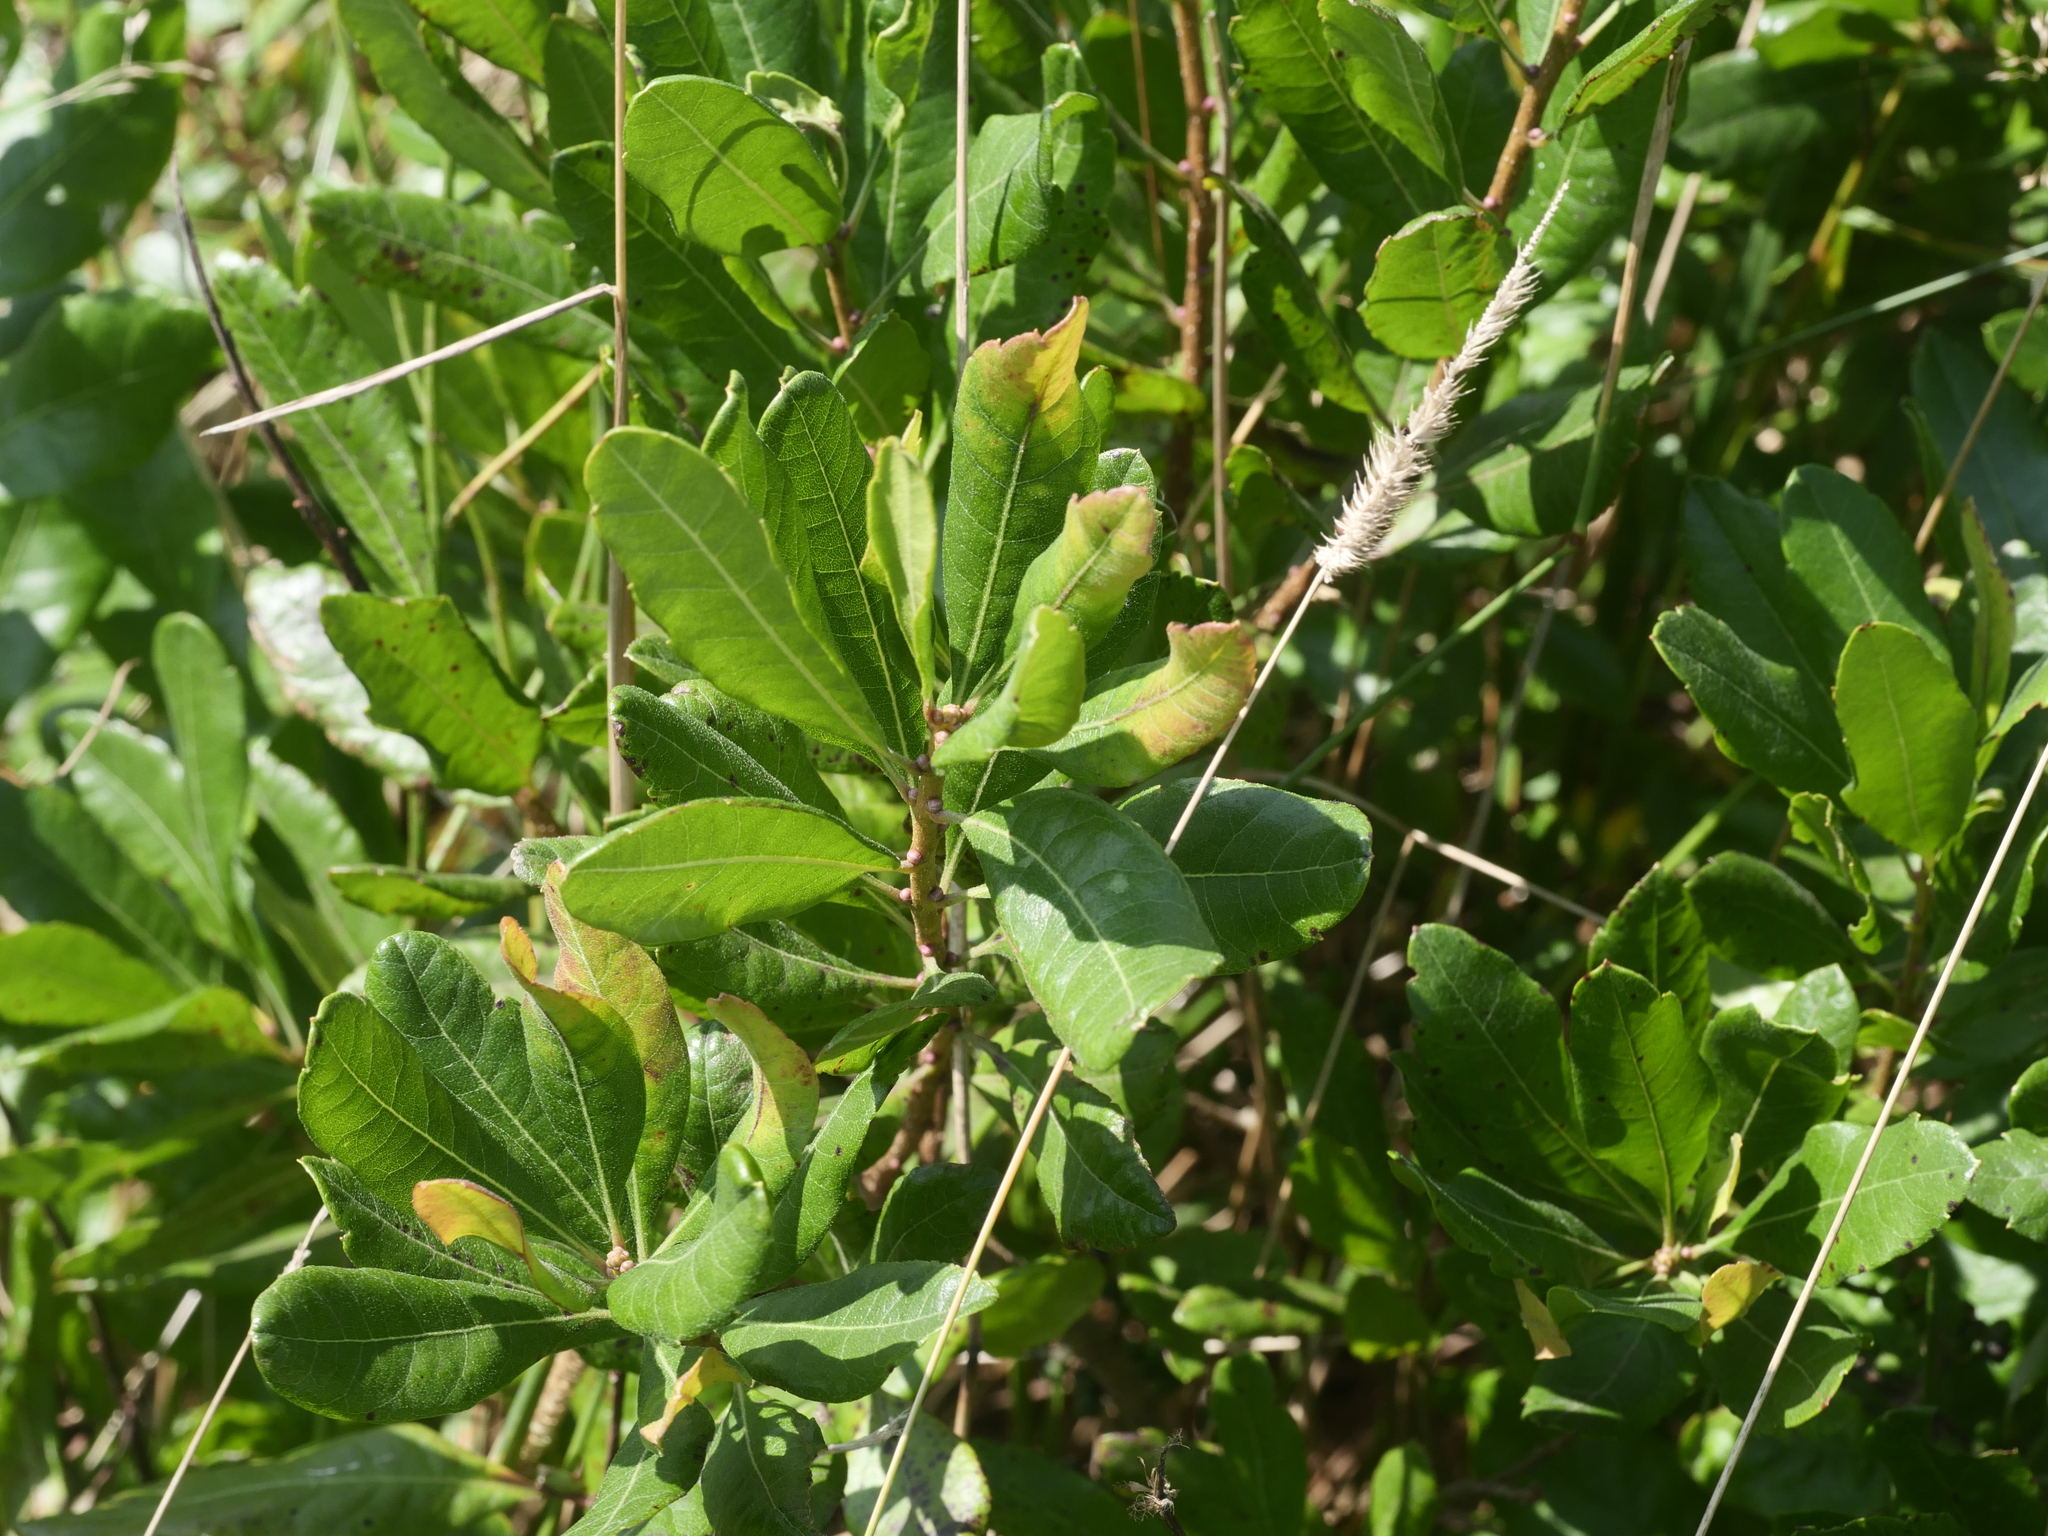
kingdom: Plantae
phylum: Tracheophyta
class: Magnoliopsida
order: Fagales
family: Myricaceae
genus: Morella
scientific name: Morella pensylvanica
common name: Northern bayberry
